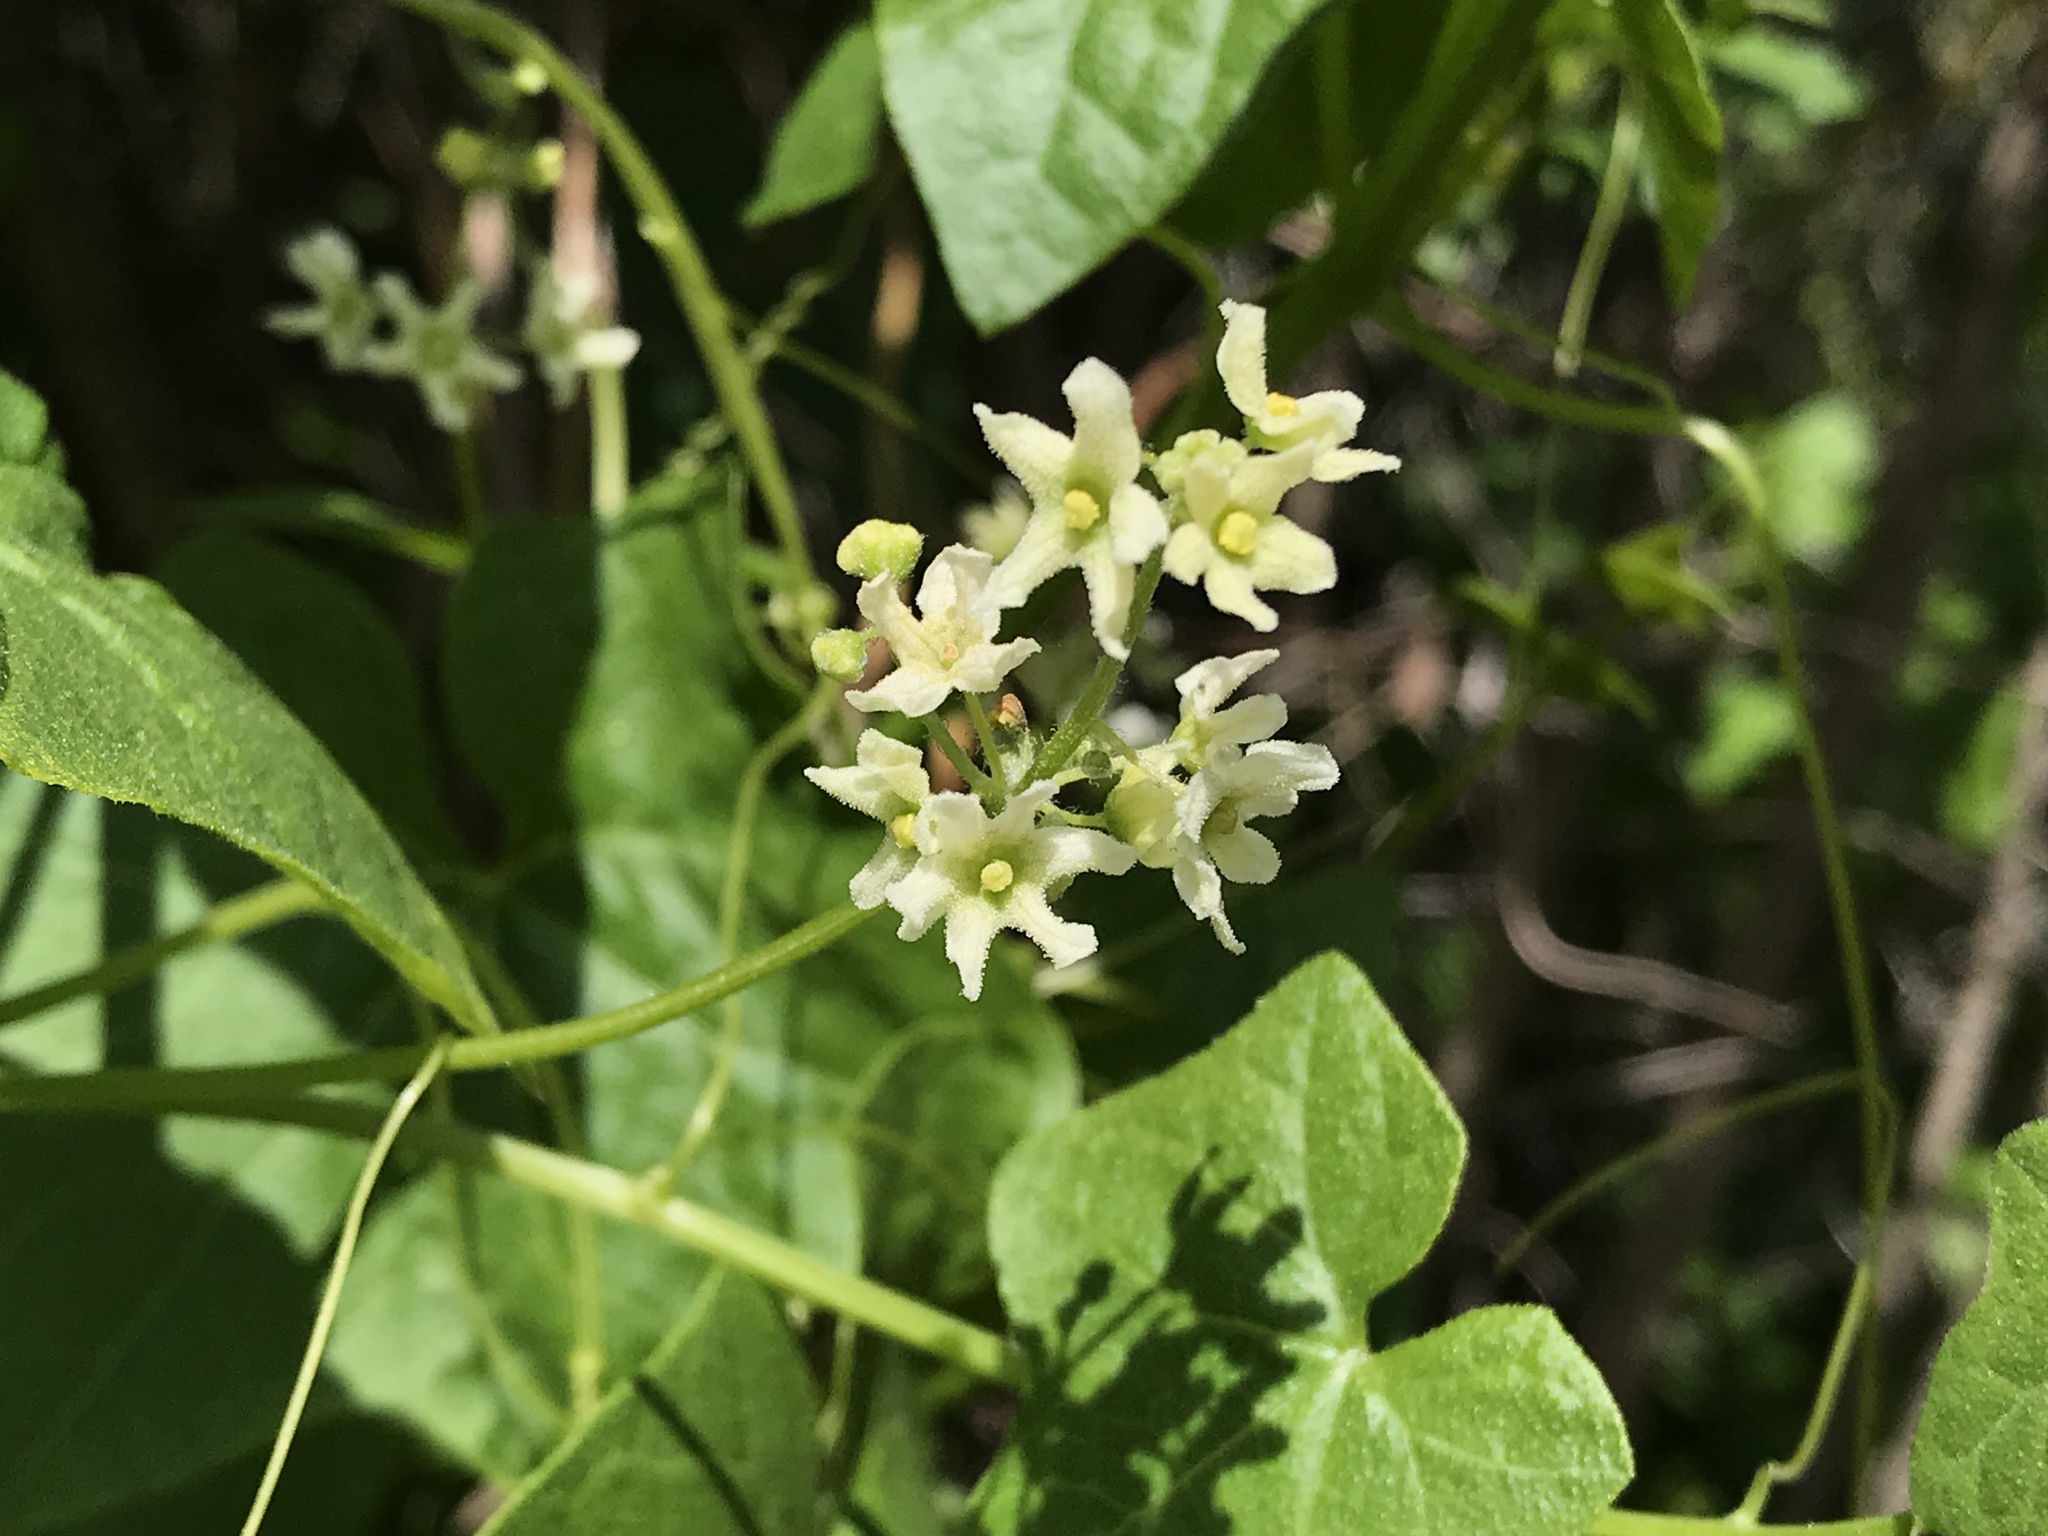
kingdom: Plantae
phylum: Tracheophyta
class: Magnoliopsida
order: Cucurbitales
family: Cucurbitaceae
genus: Marah
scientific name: Marah fabacea
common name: California manroot
